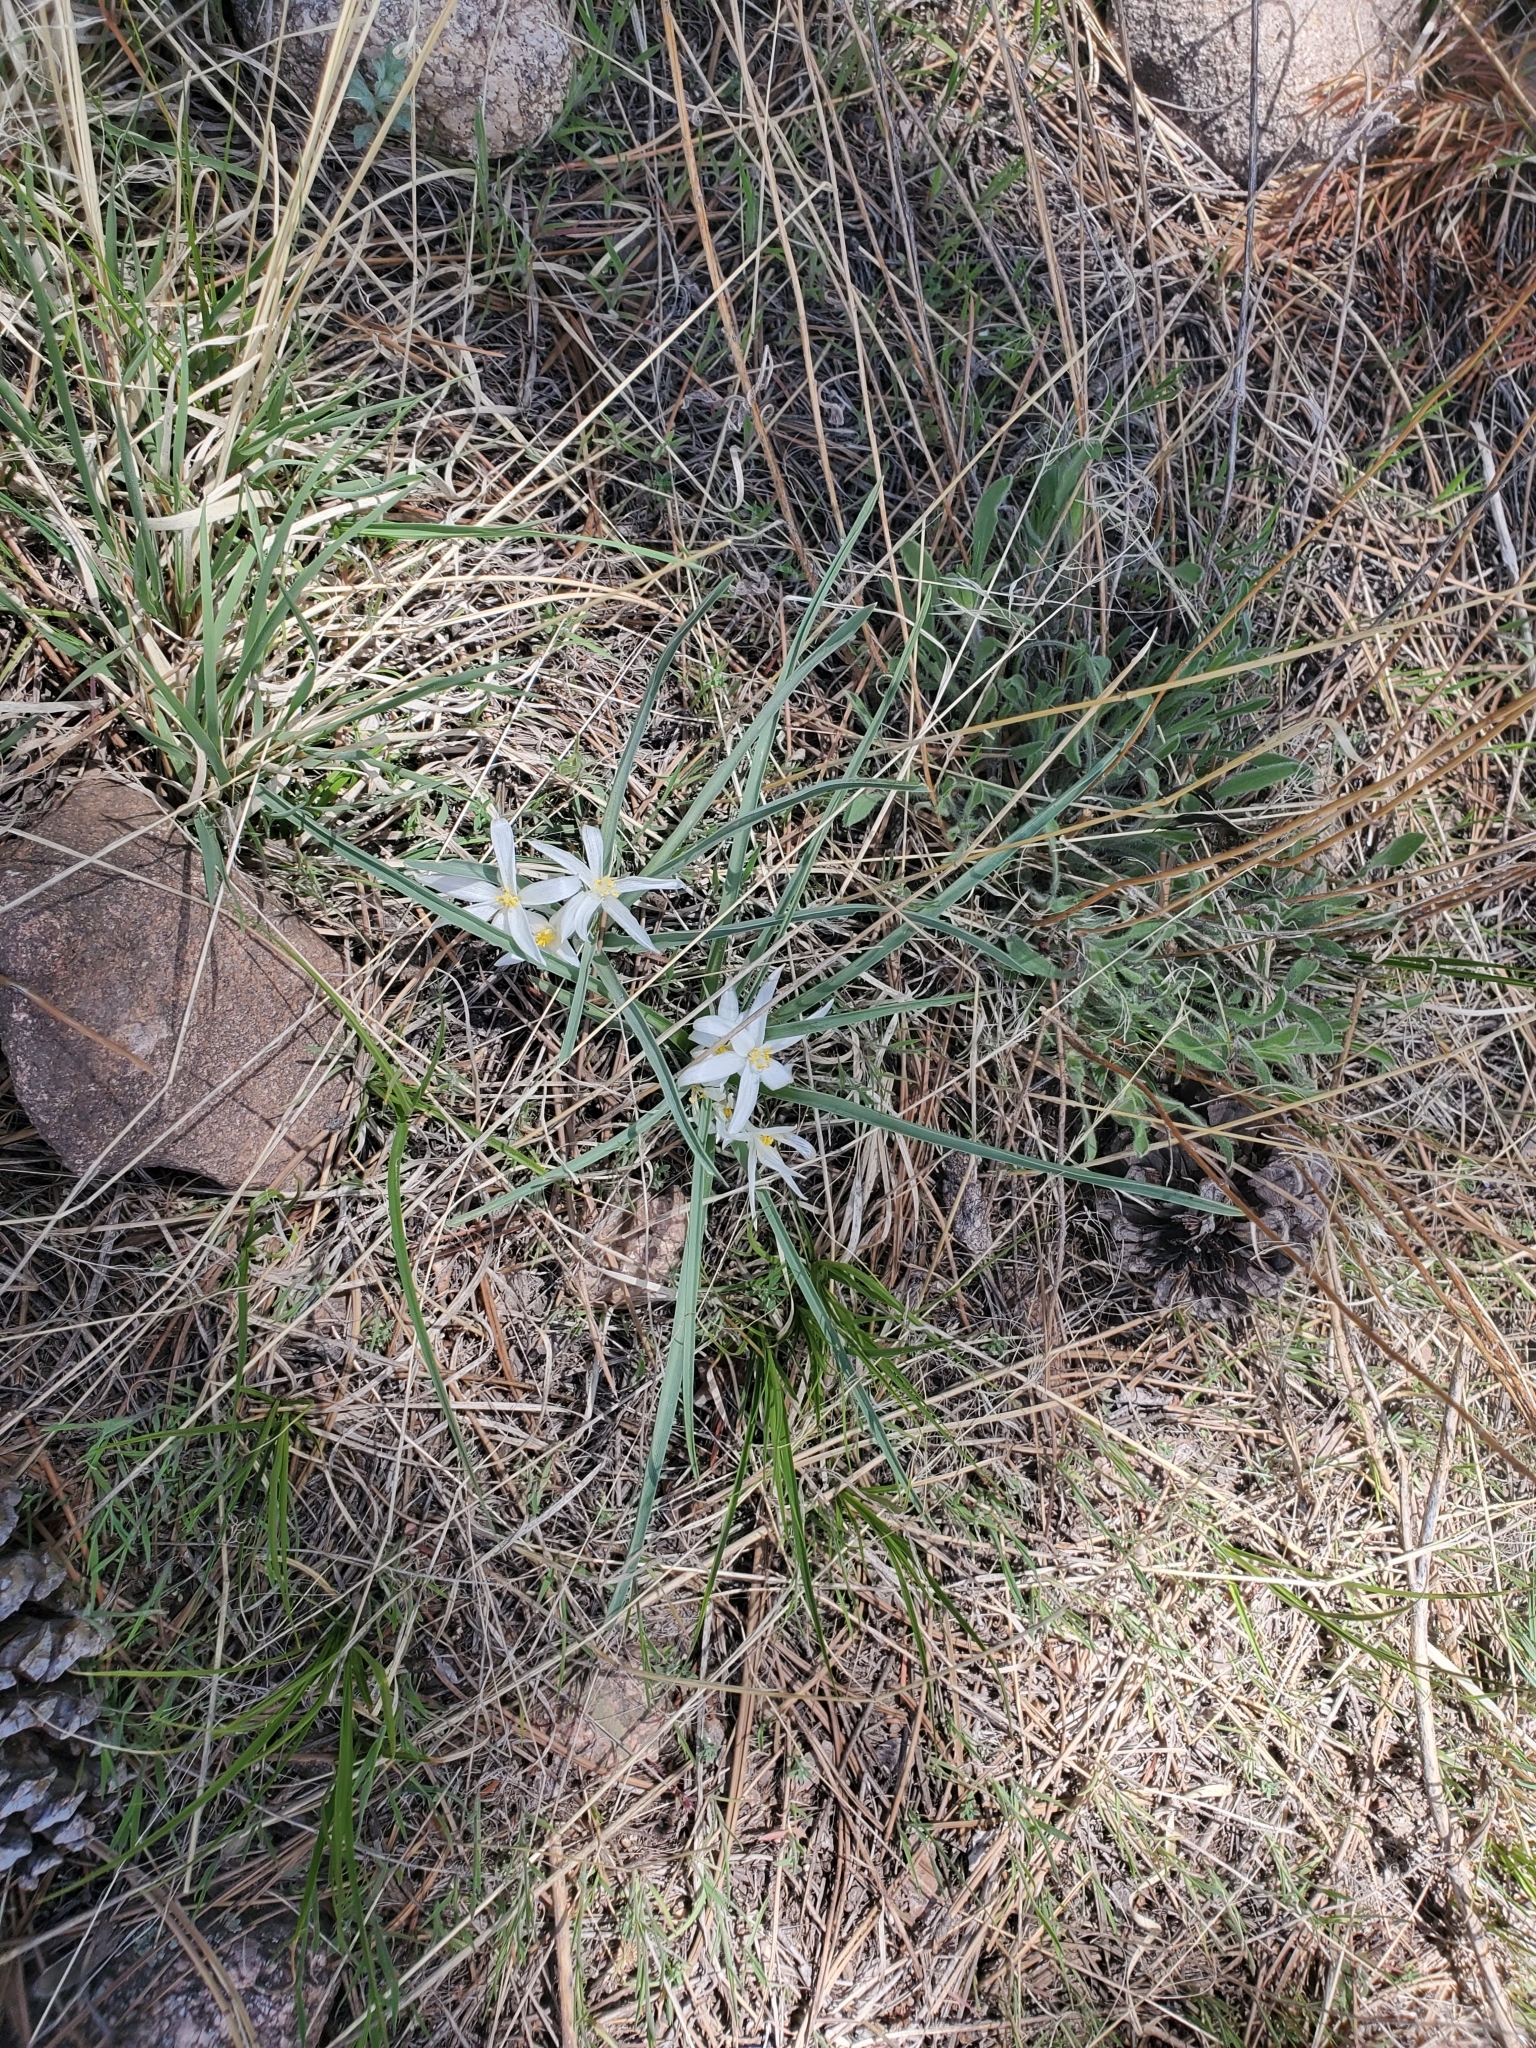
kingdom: Plantae
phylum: Tracheophyta
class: Liliopsida
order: Asparagales
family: Asparagaceae
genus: Leucocrinum
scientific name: Leucocrinum montanum
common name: Mountain-lily
